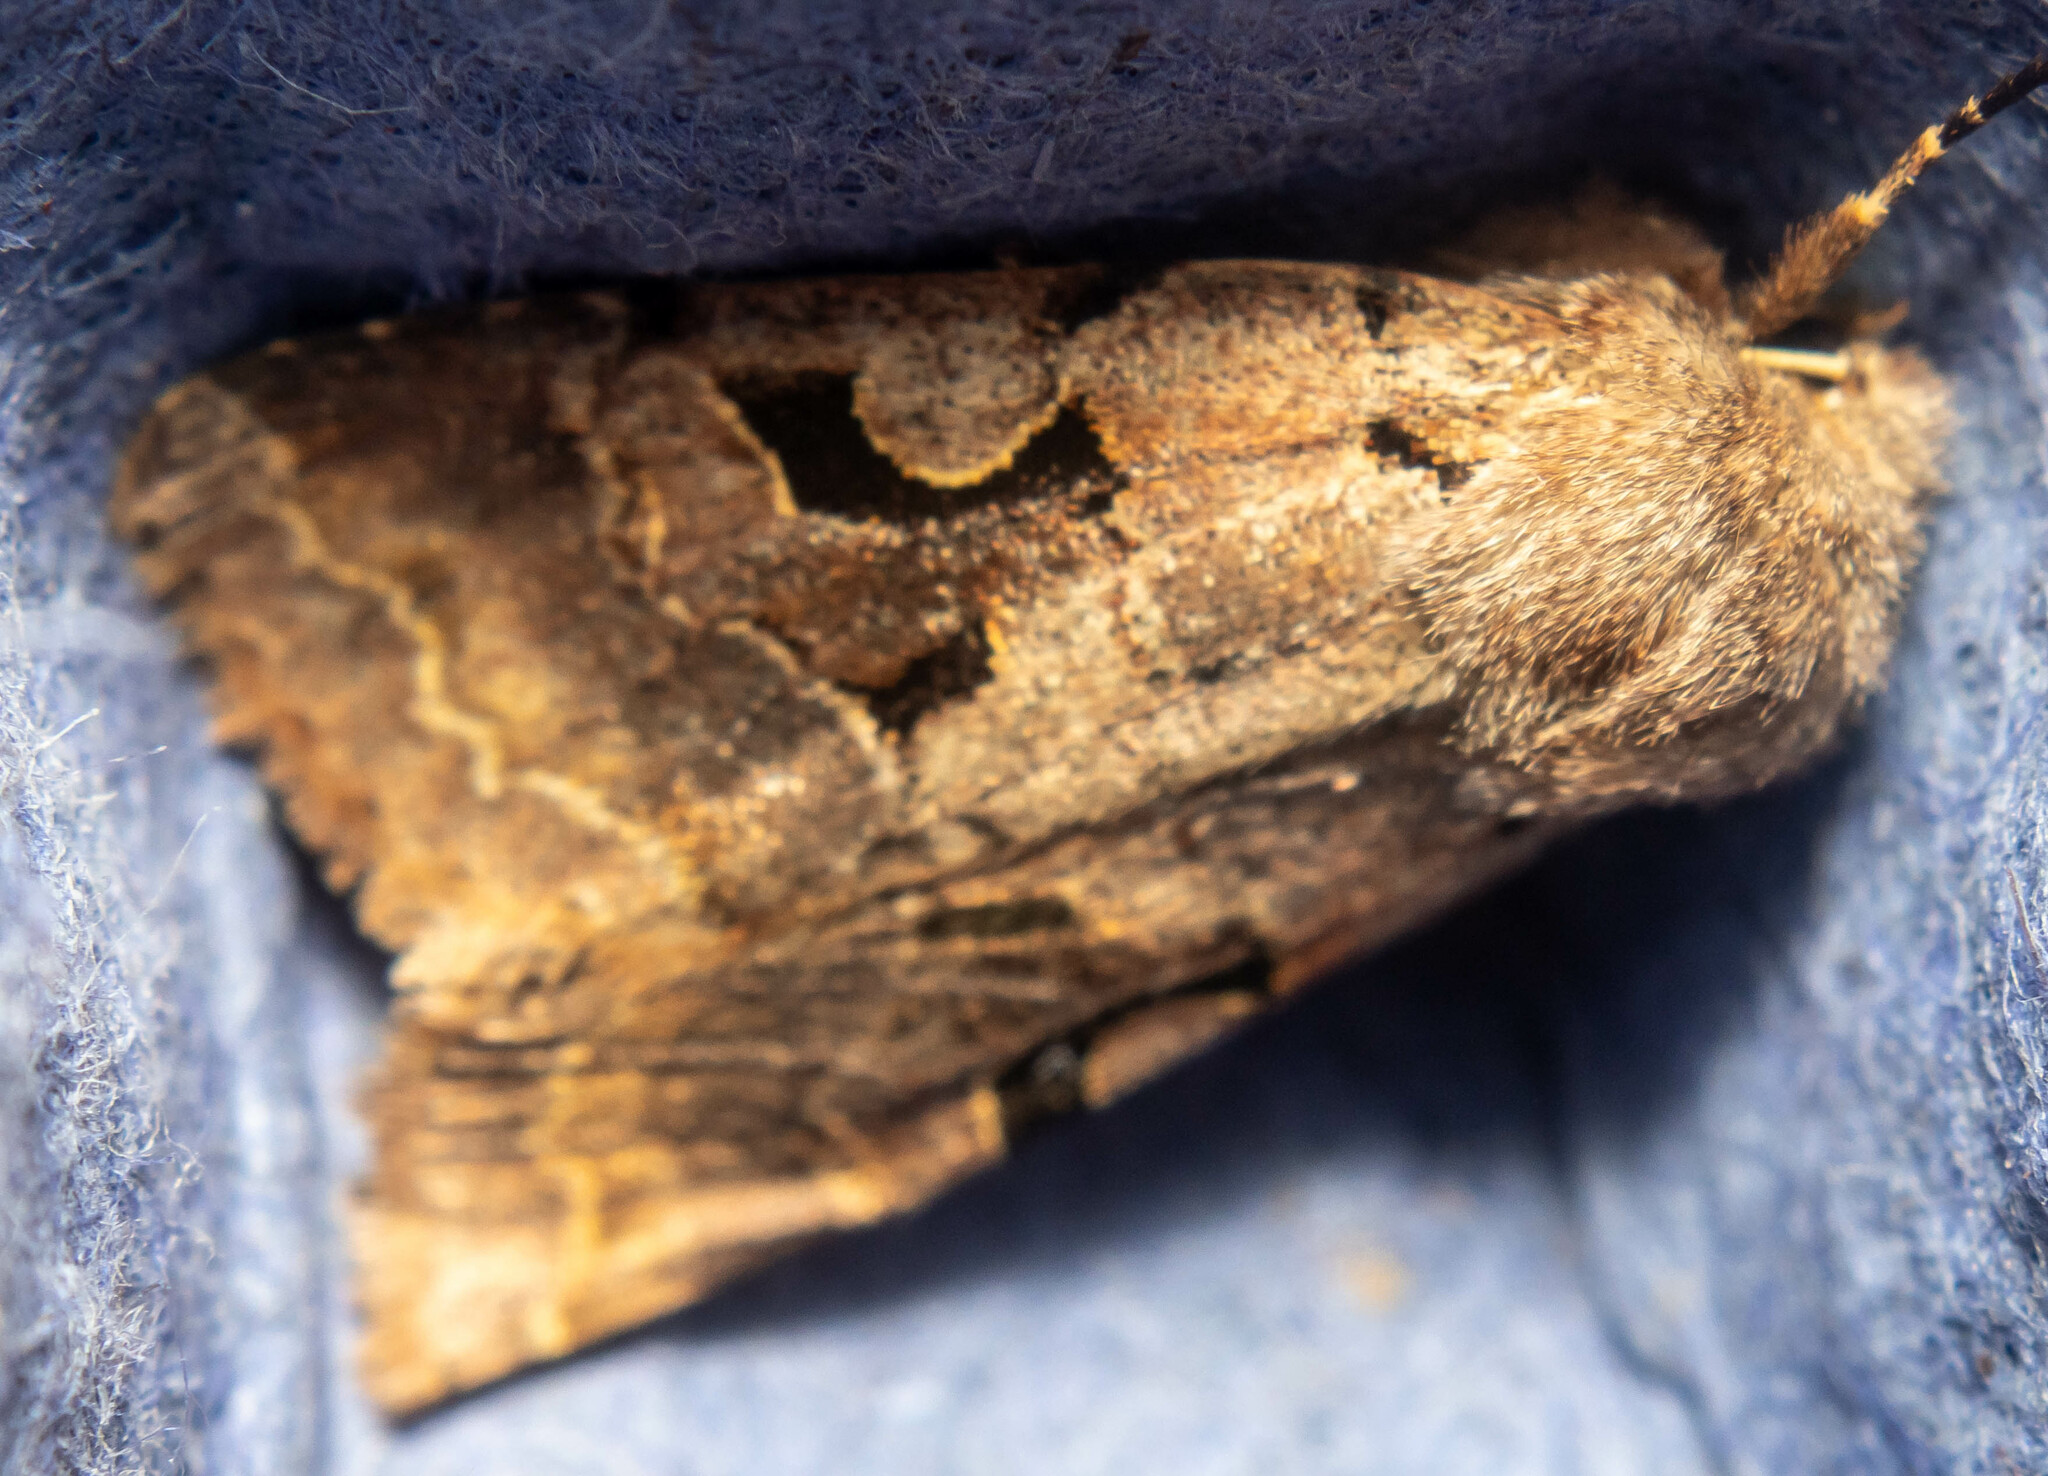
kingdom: Animalia
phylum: Arthropoda
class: Insecta
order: Lepidoptera
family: Noctuidae
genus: Orthosia
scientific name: Orthosia gothica
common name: Hebrew character
